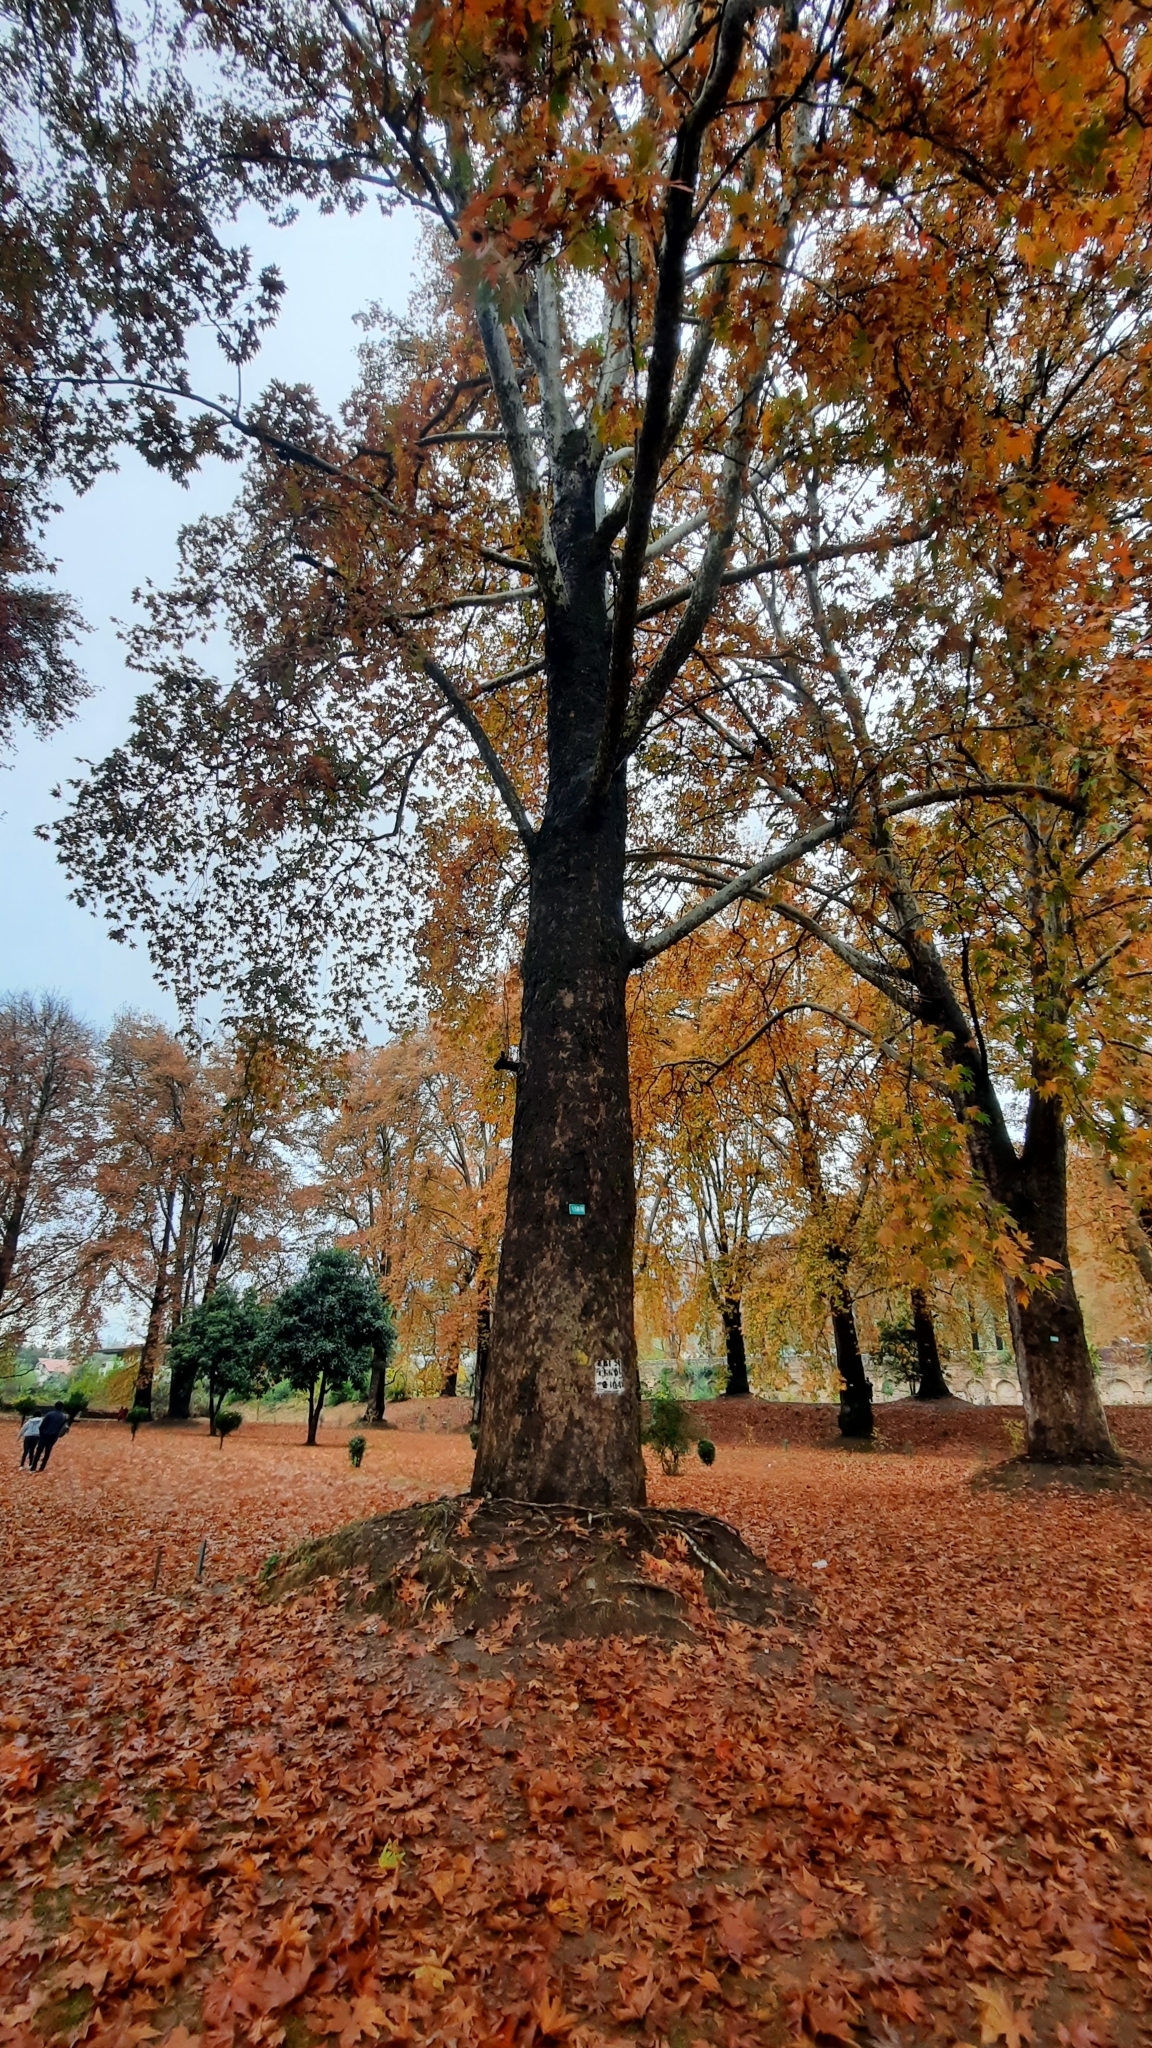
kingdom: Plantae
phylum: Tracheophyta
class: Magnoliopsida
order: Proteales
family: Platanaceae
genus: Platanus
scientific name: Platanus orientalis
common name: Oriental plane
